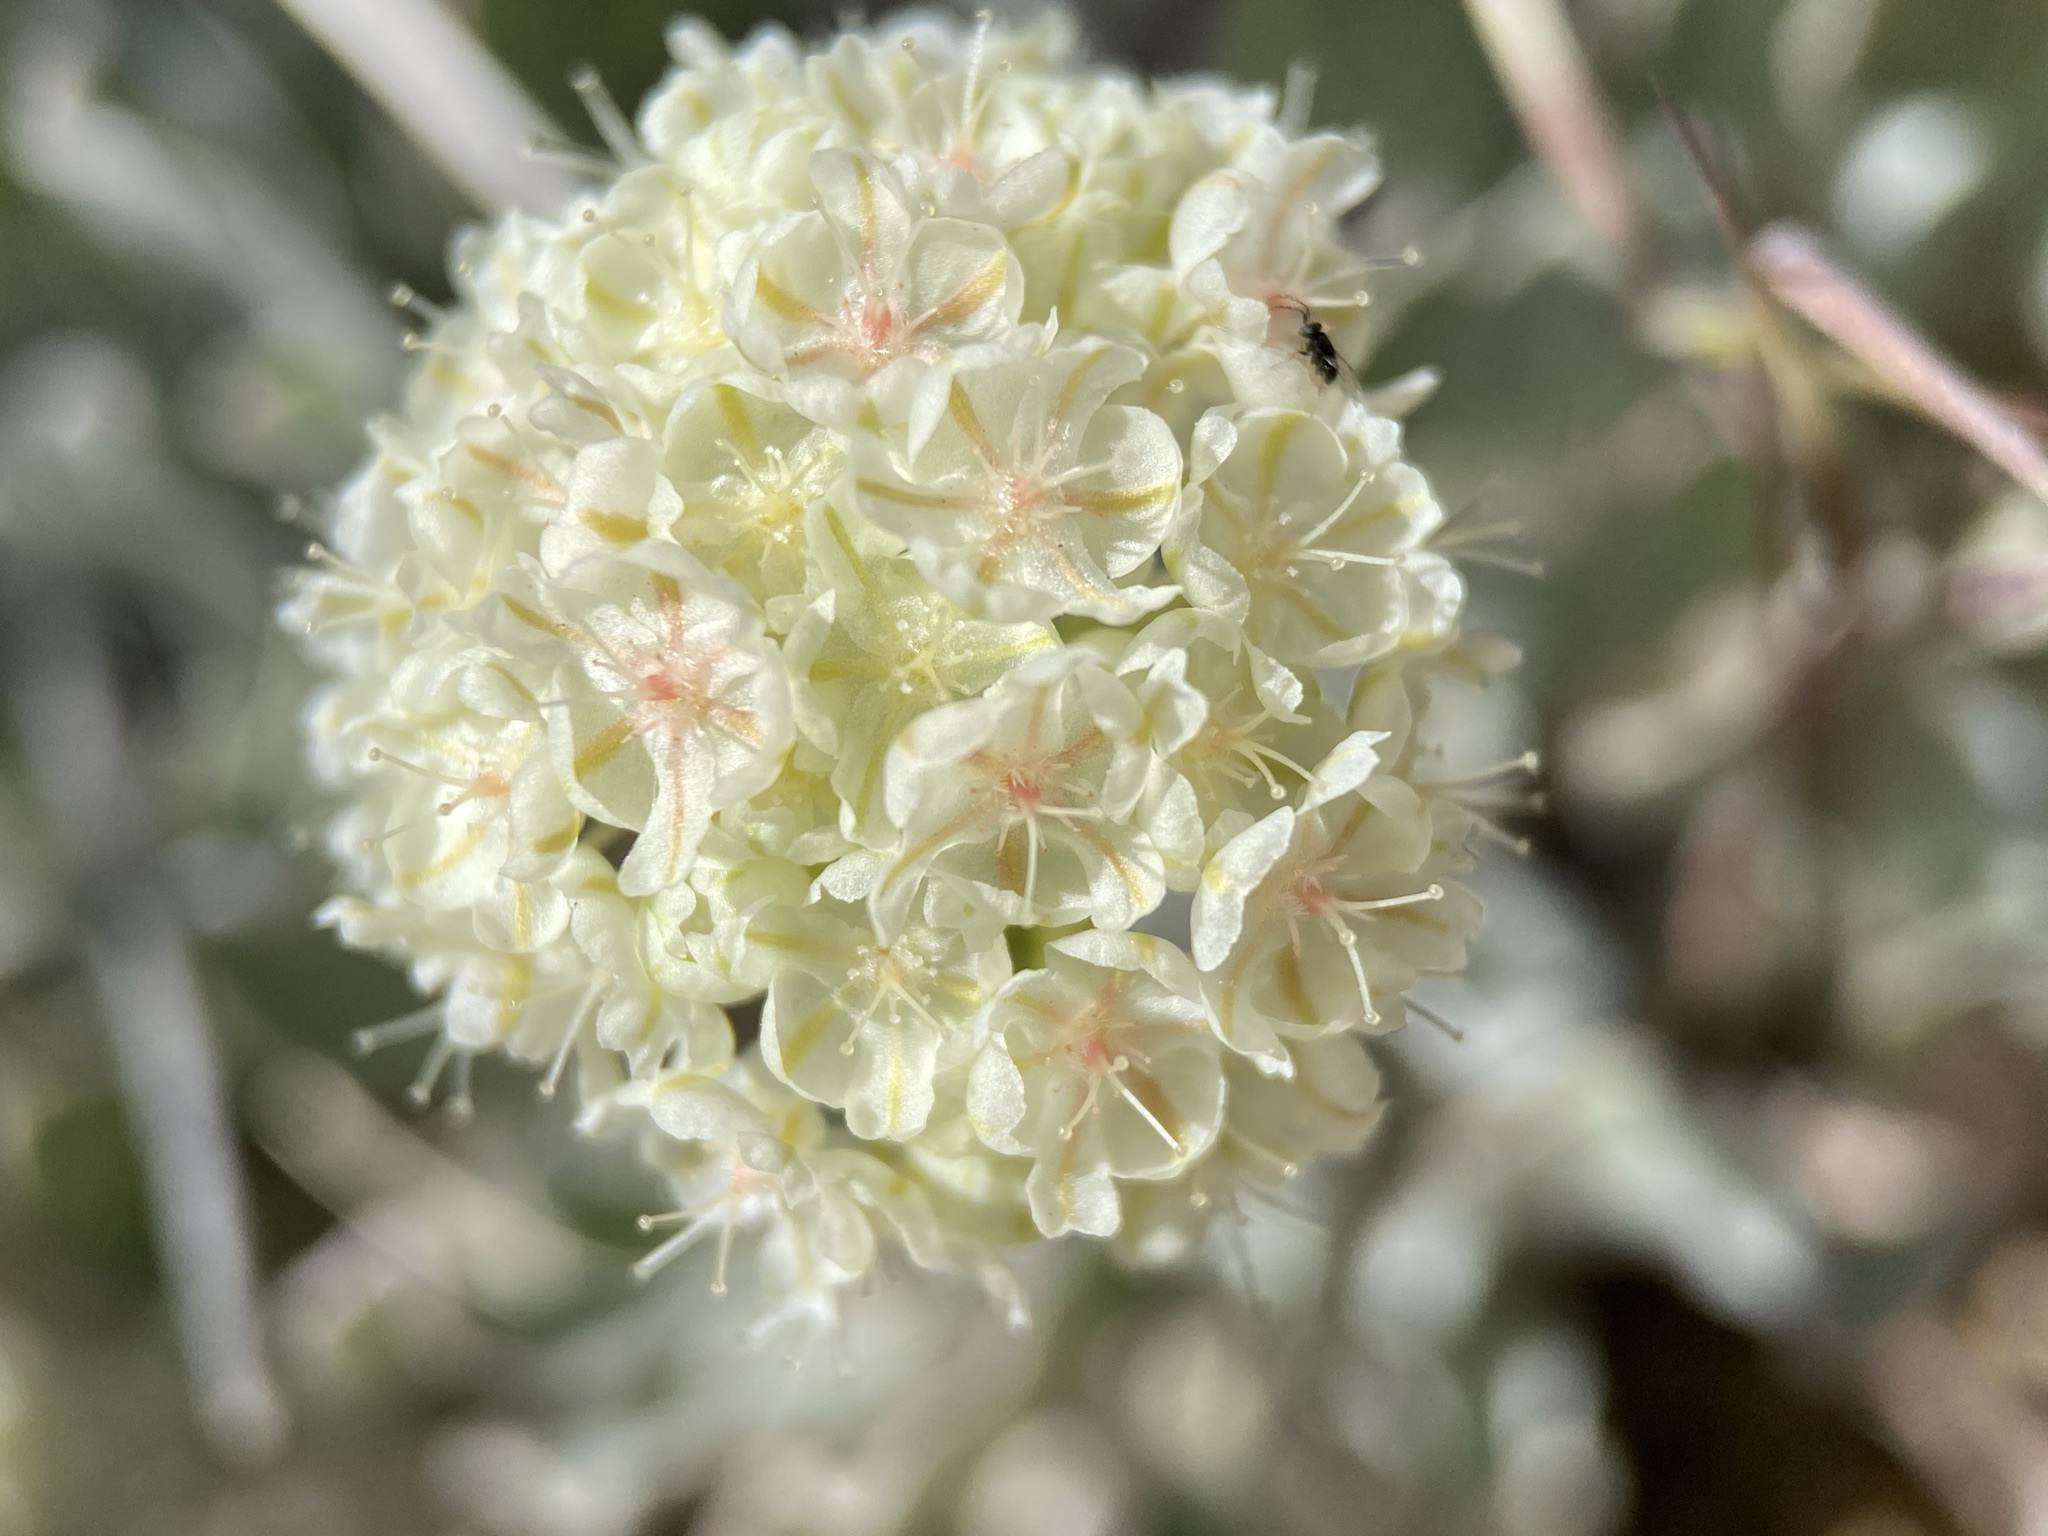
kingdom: Plantae
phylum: Tracheophyta
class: Magnoliopsida
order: Caryophyllales
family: Polygonaceae
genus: Eriogonum
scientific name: Eriogonum ovalifolium
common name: Cushion buckwheat
